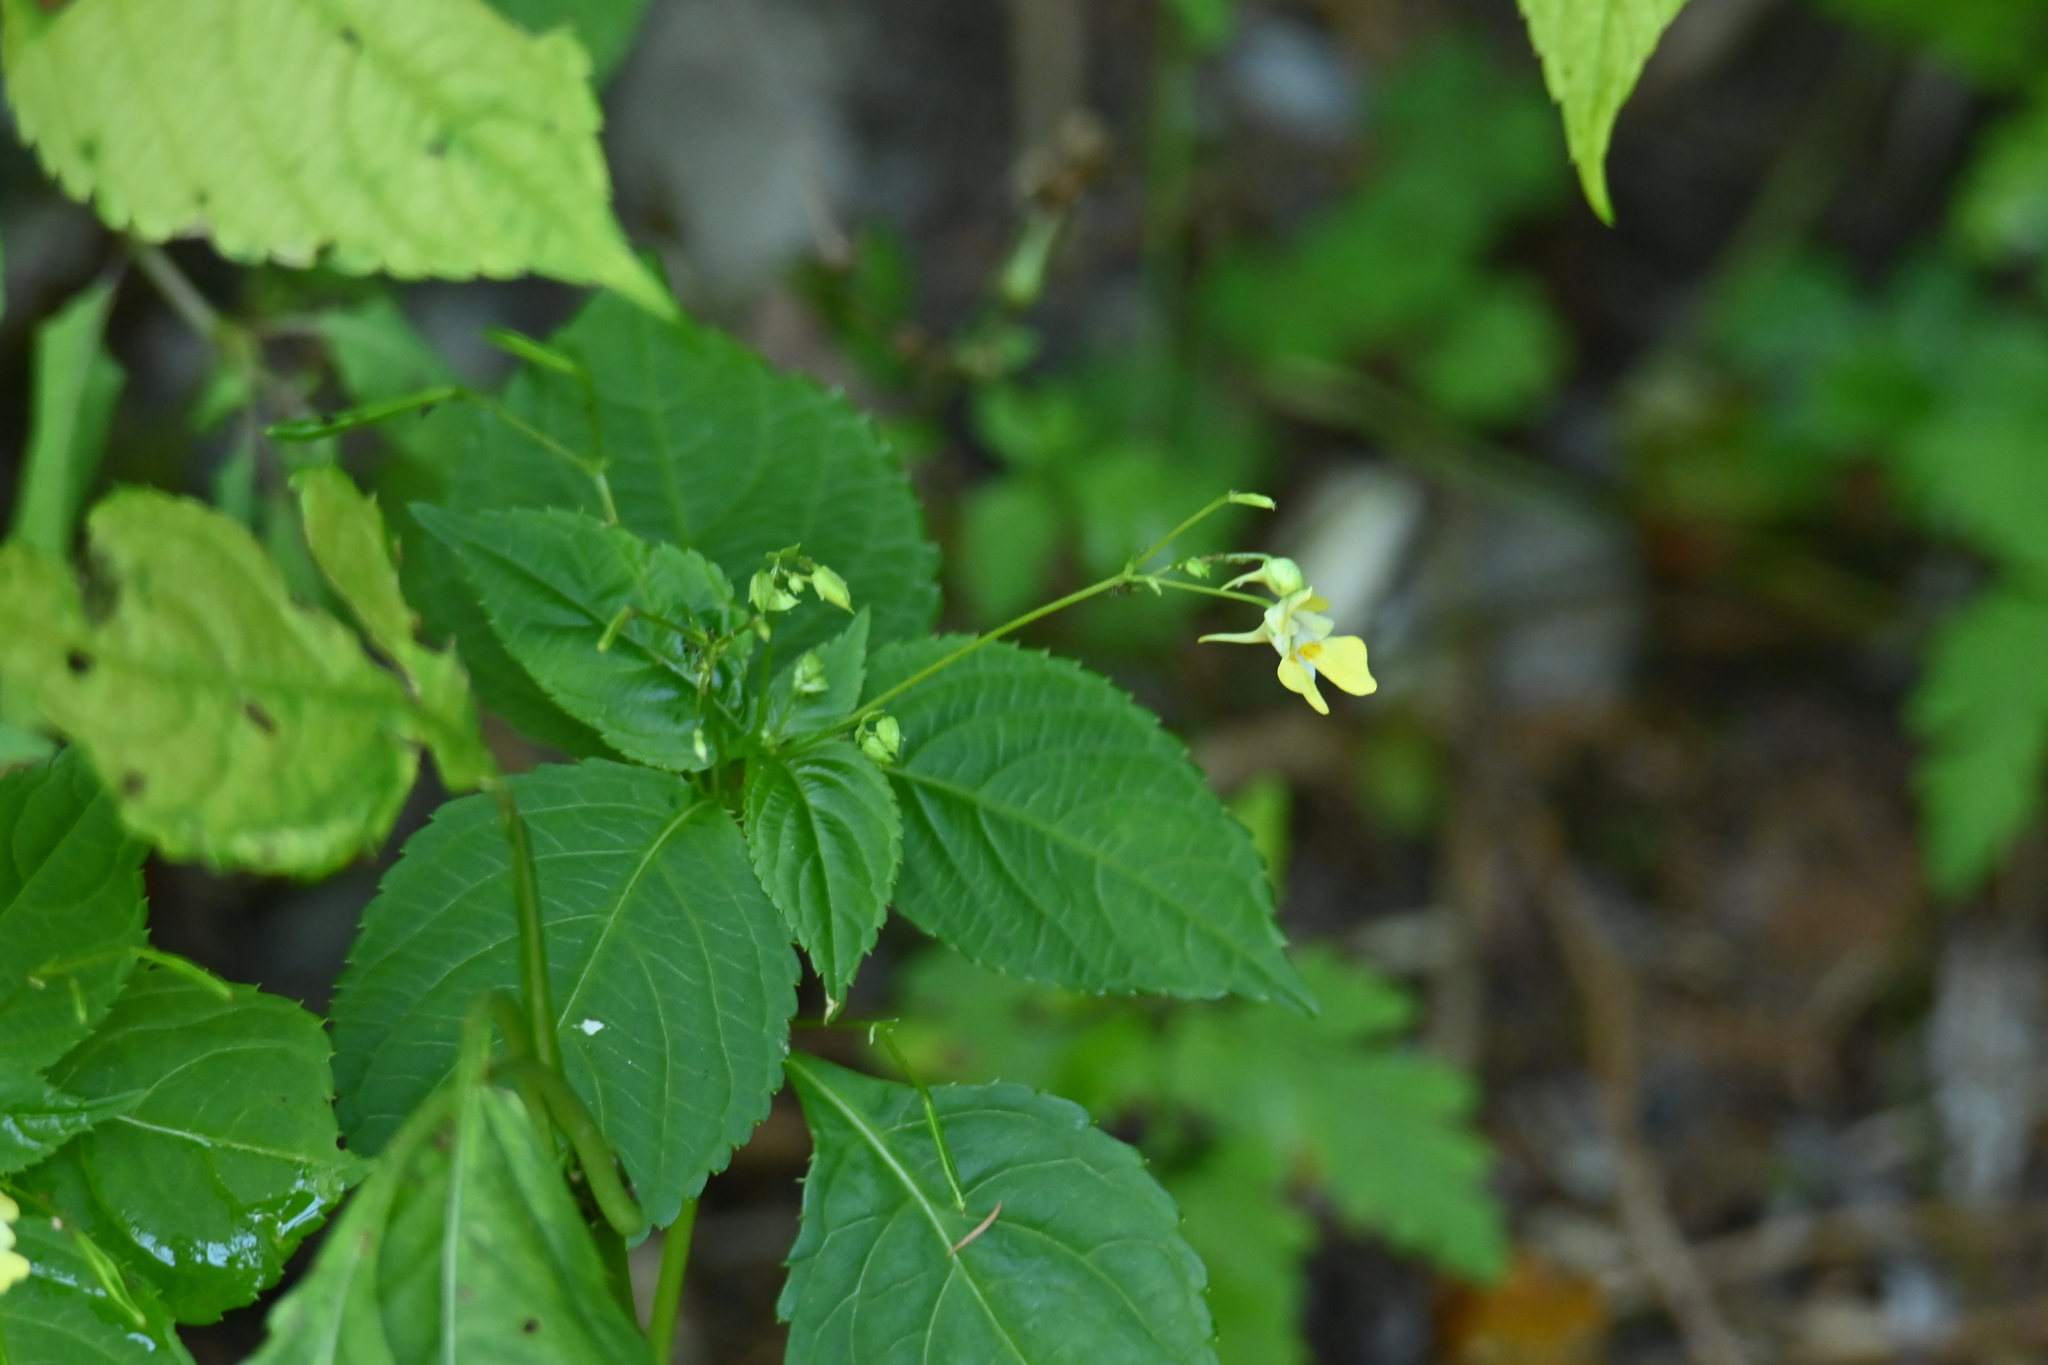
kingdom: Plantae
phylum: Tracheophyta
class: Magnoliopsida
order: Ericales
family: Balsaminaceae
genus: Impatiens
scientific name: Impatiens parviflora
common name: Small balsam
